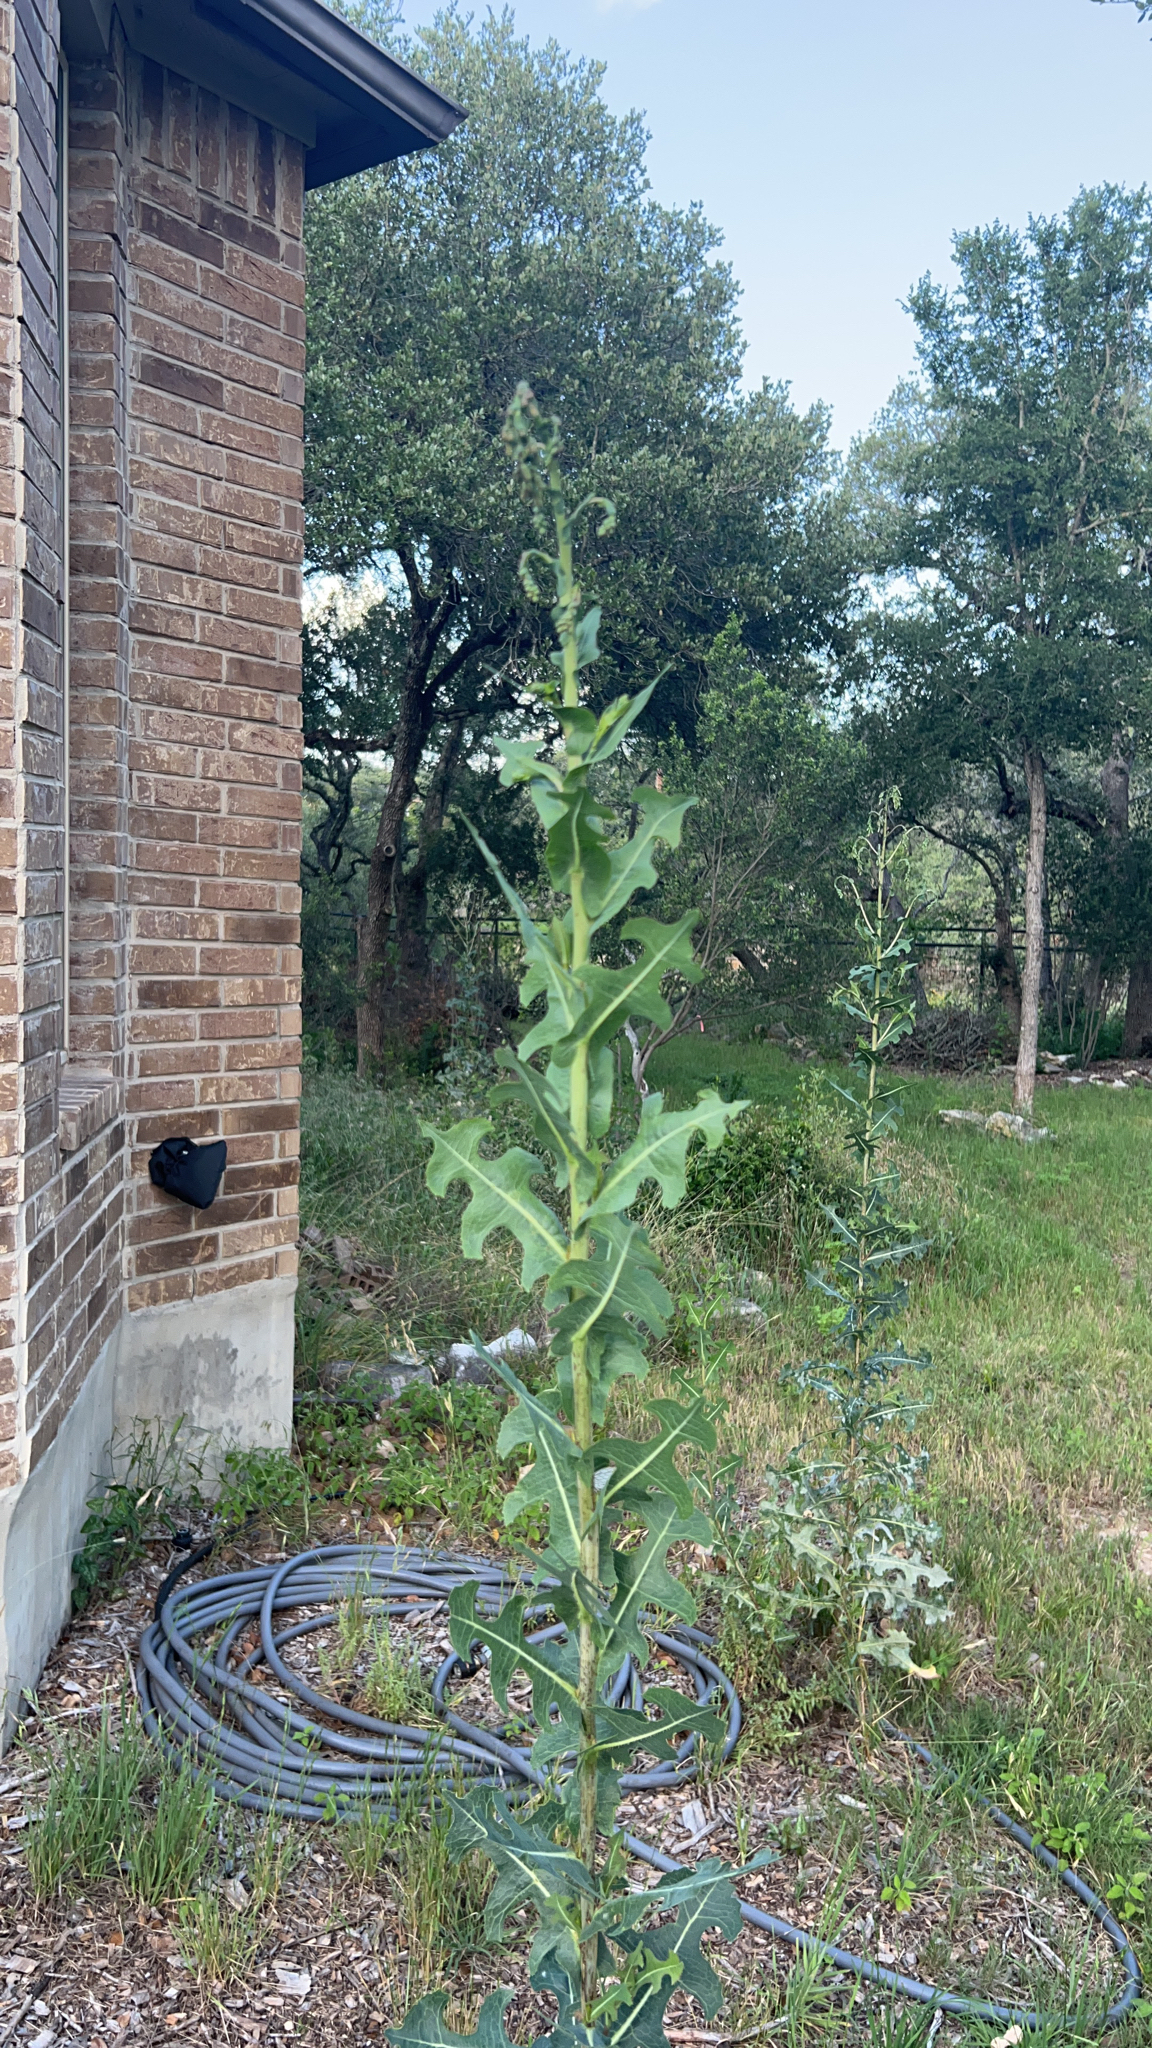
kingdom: Plantae
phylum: Tracheophyta
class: Magnoliopsida
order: Asterales
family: Asteraceae
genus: Lactuca
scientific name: Lactuca serriola
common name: Prickly lettuce
